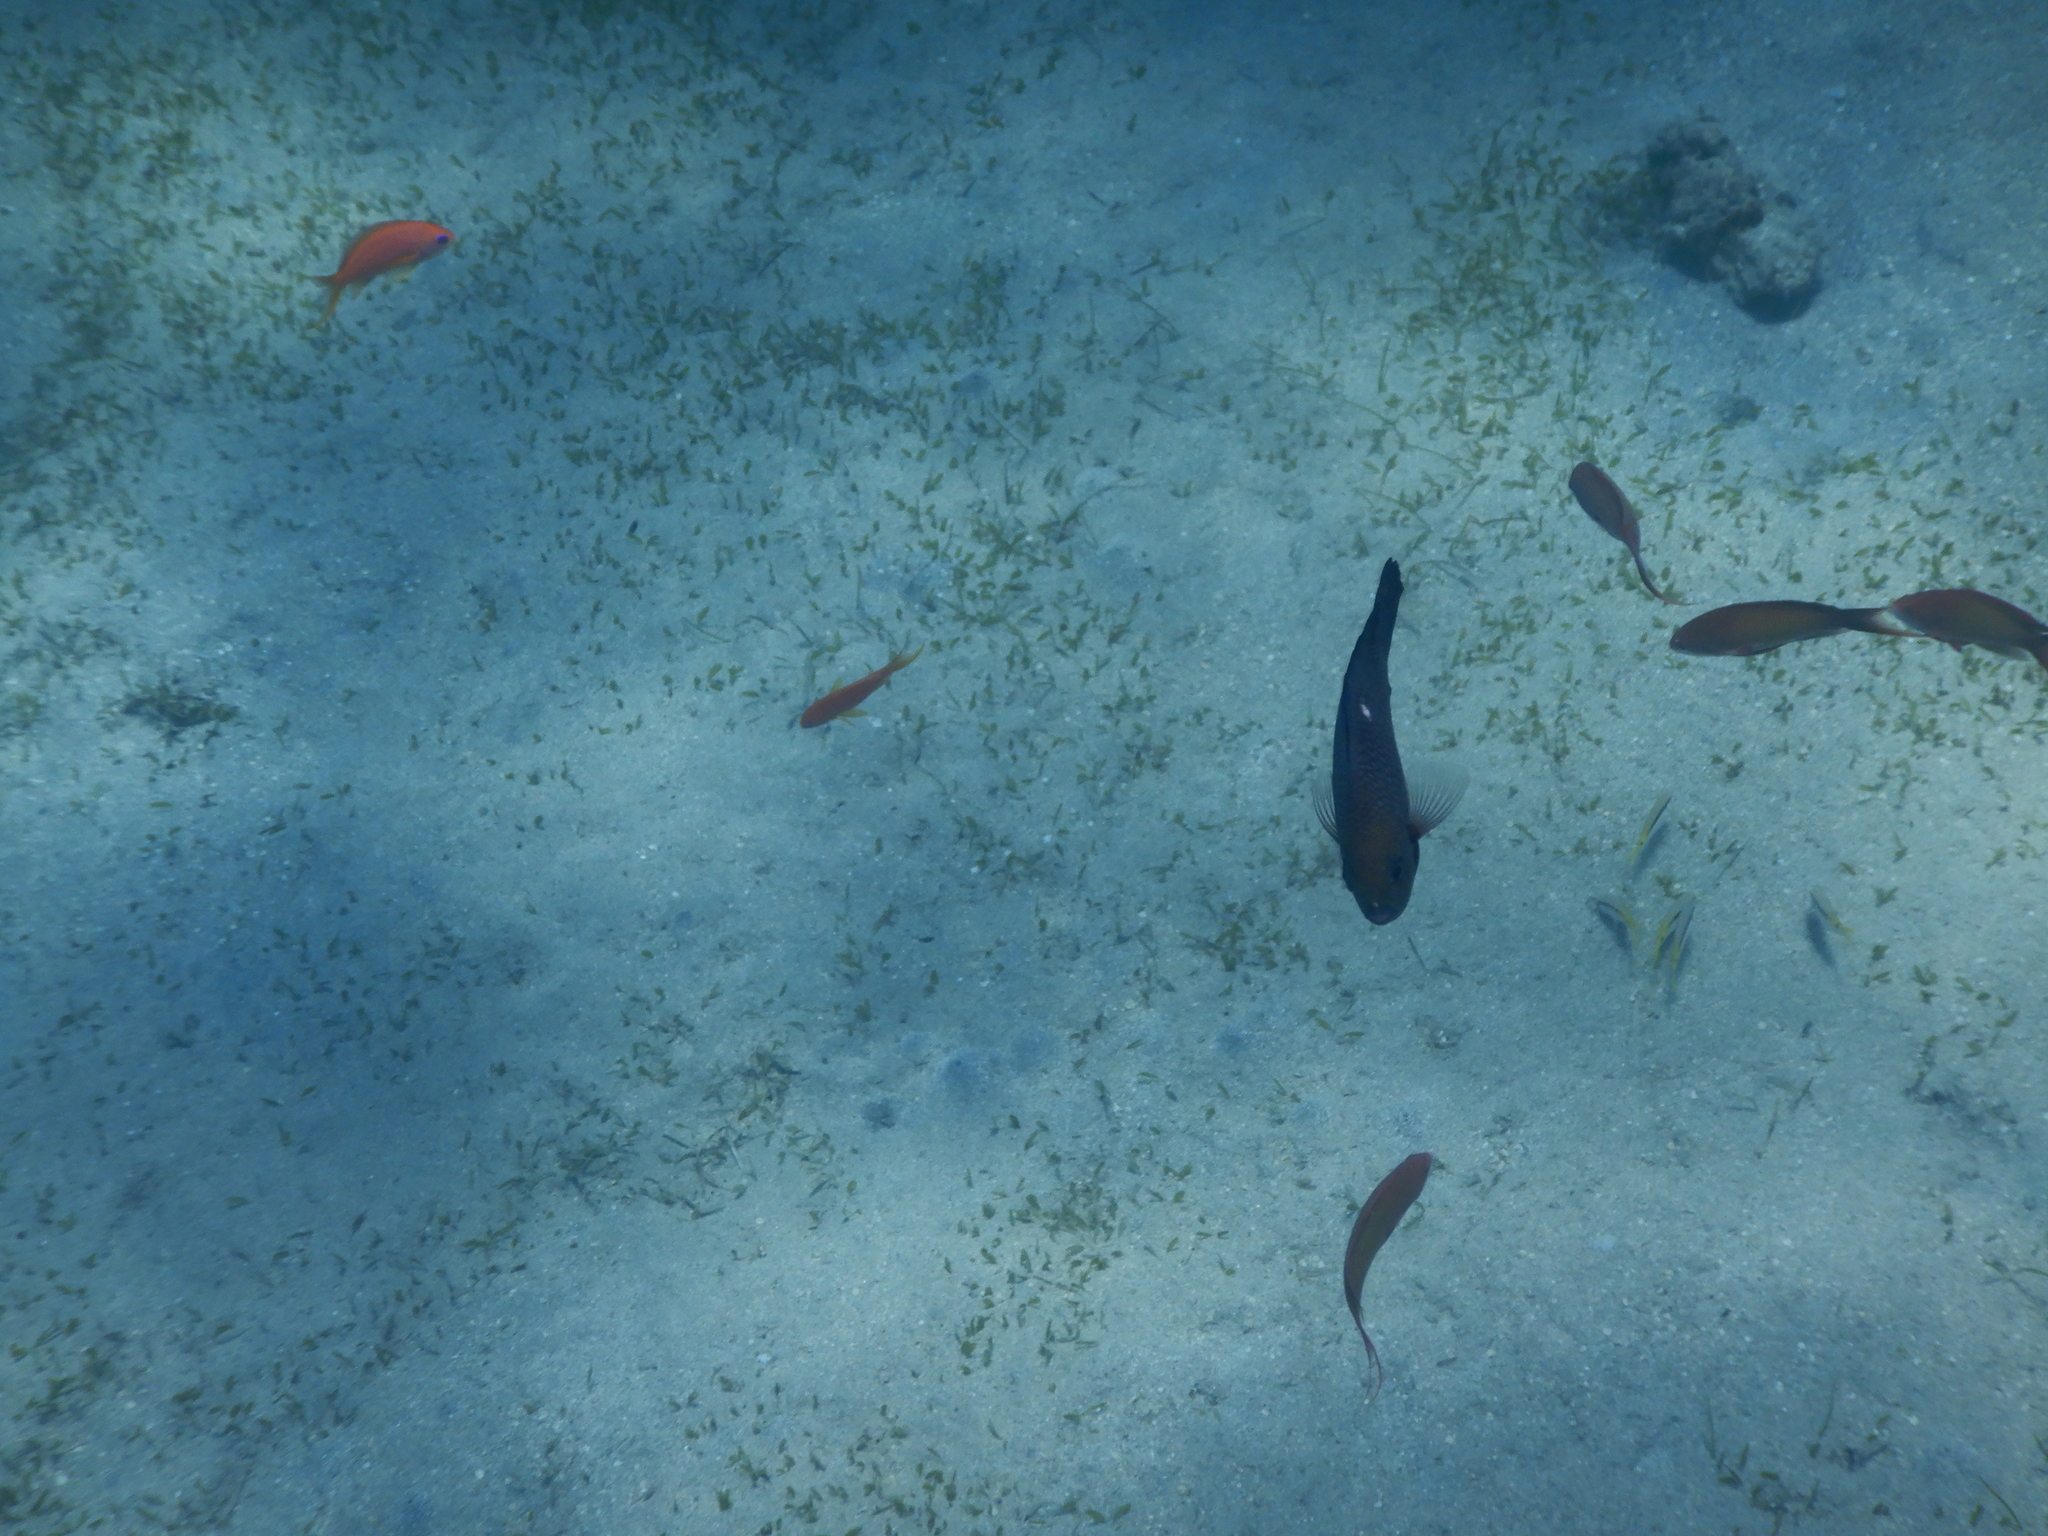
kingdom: Animalia
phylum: Chordata
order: Perciformes
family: Serranidae
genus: Pseudanthias
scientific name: Pseudanthias squamipinnis
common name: Scalefin anthias
